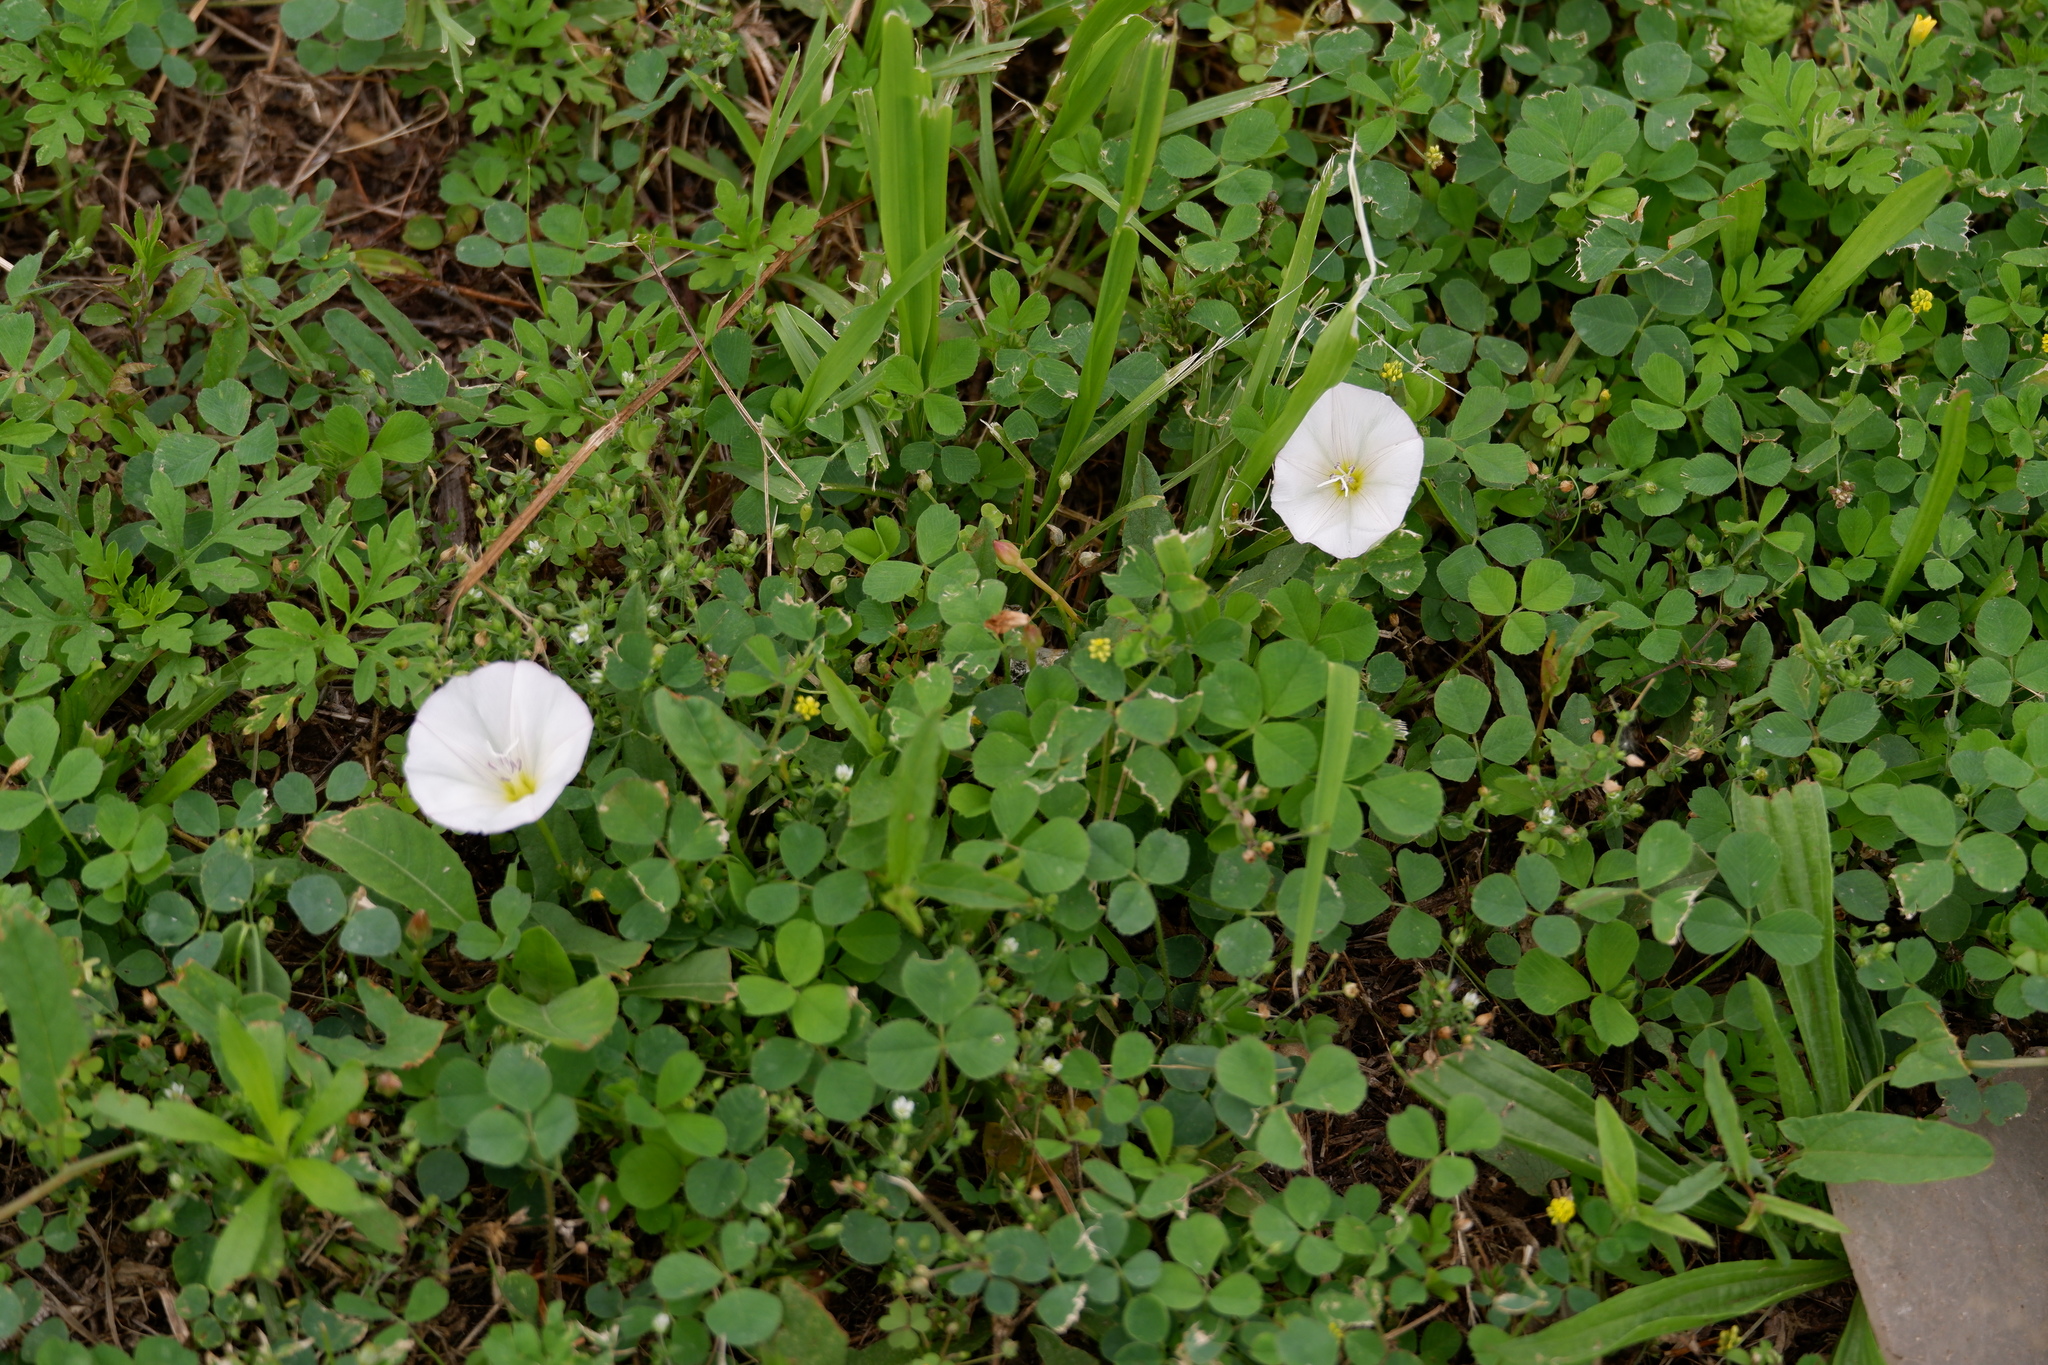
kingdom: Plantae
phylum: Tracheophyta
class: Magnoliopsida
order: Solanales
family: Convolvulaceae
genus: Convolvulus
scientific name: Convolvulus arvensis
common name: Field bindweed
